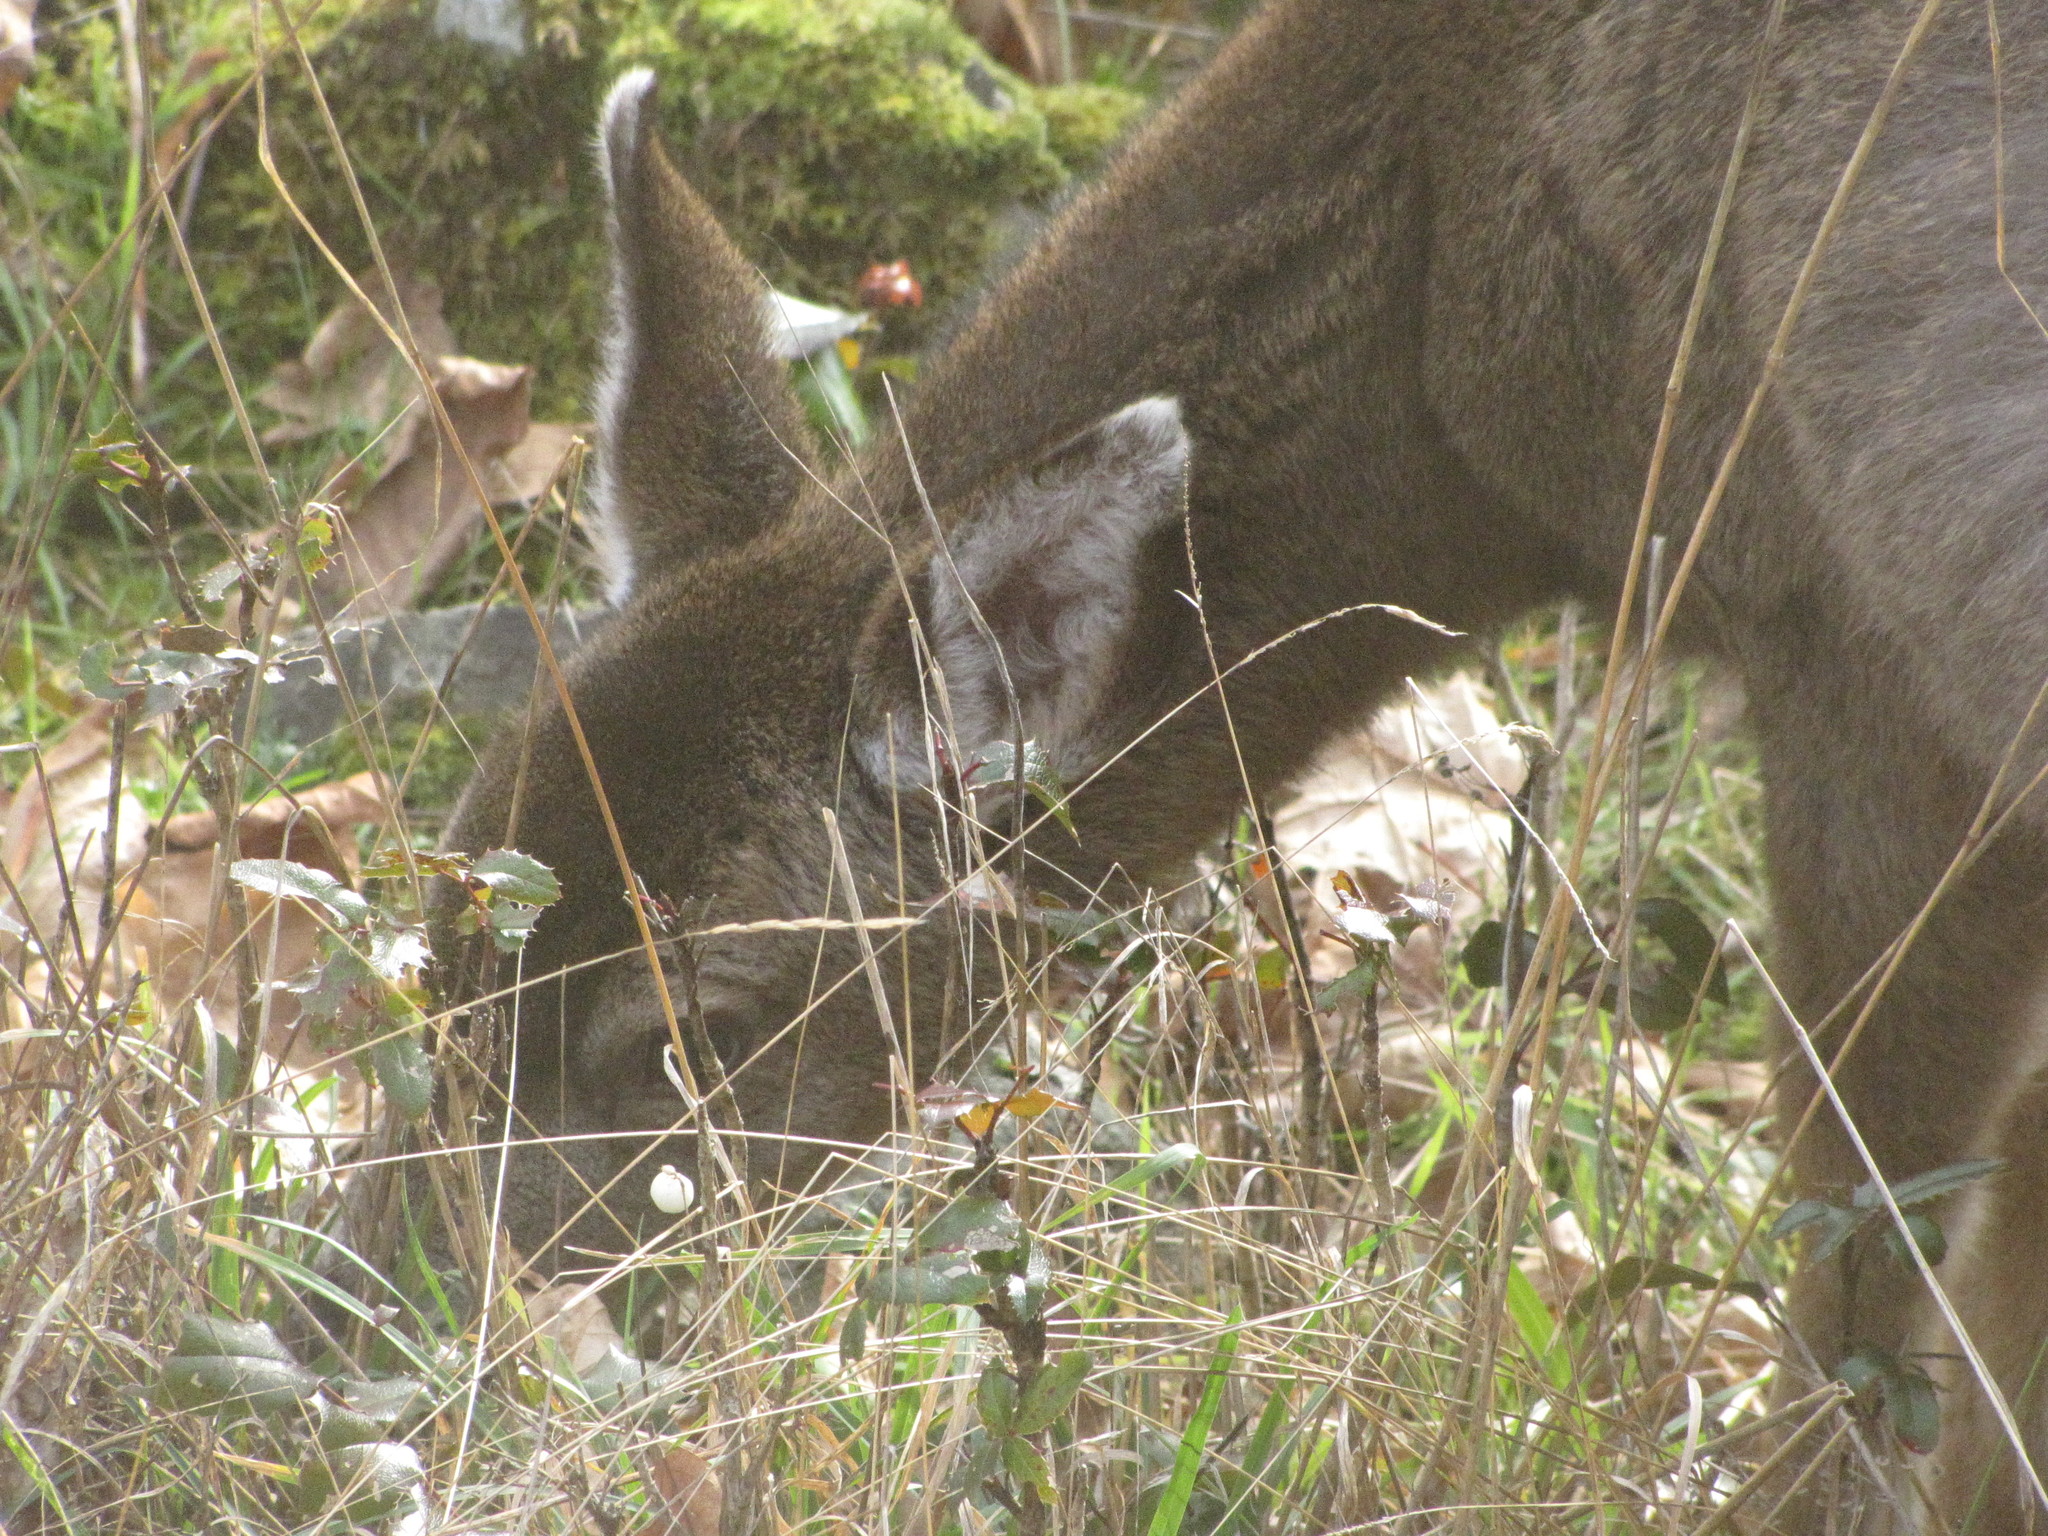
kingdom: Animalia
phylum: Chordata
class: Mammalia
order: Artiodactyla
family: Cervidae
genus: Odocoileus
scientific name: Odocoileus hemionus
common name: Mule deer
